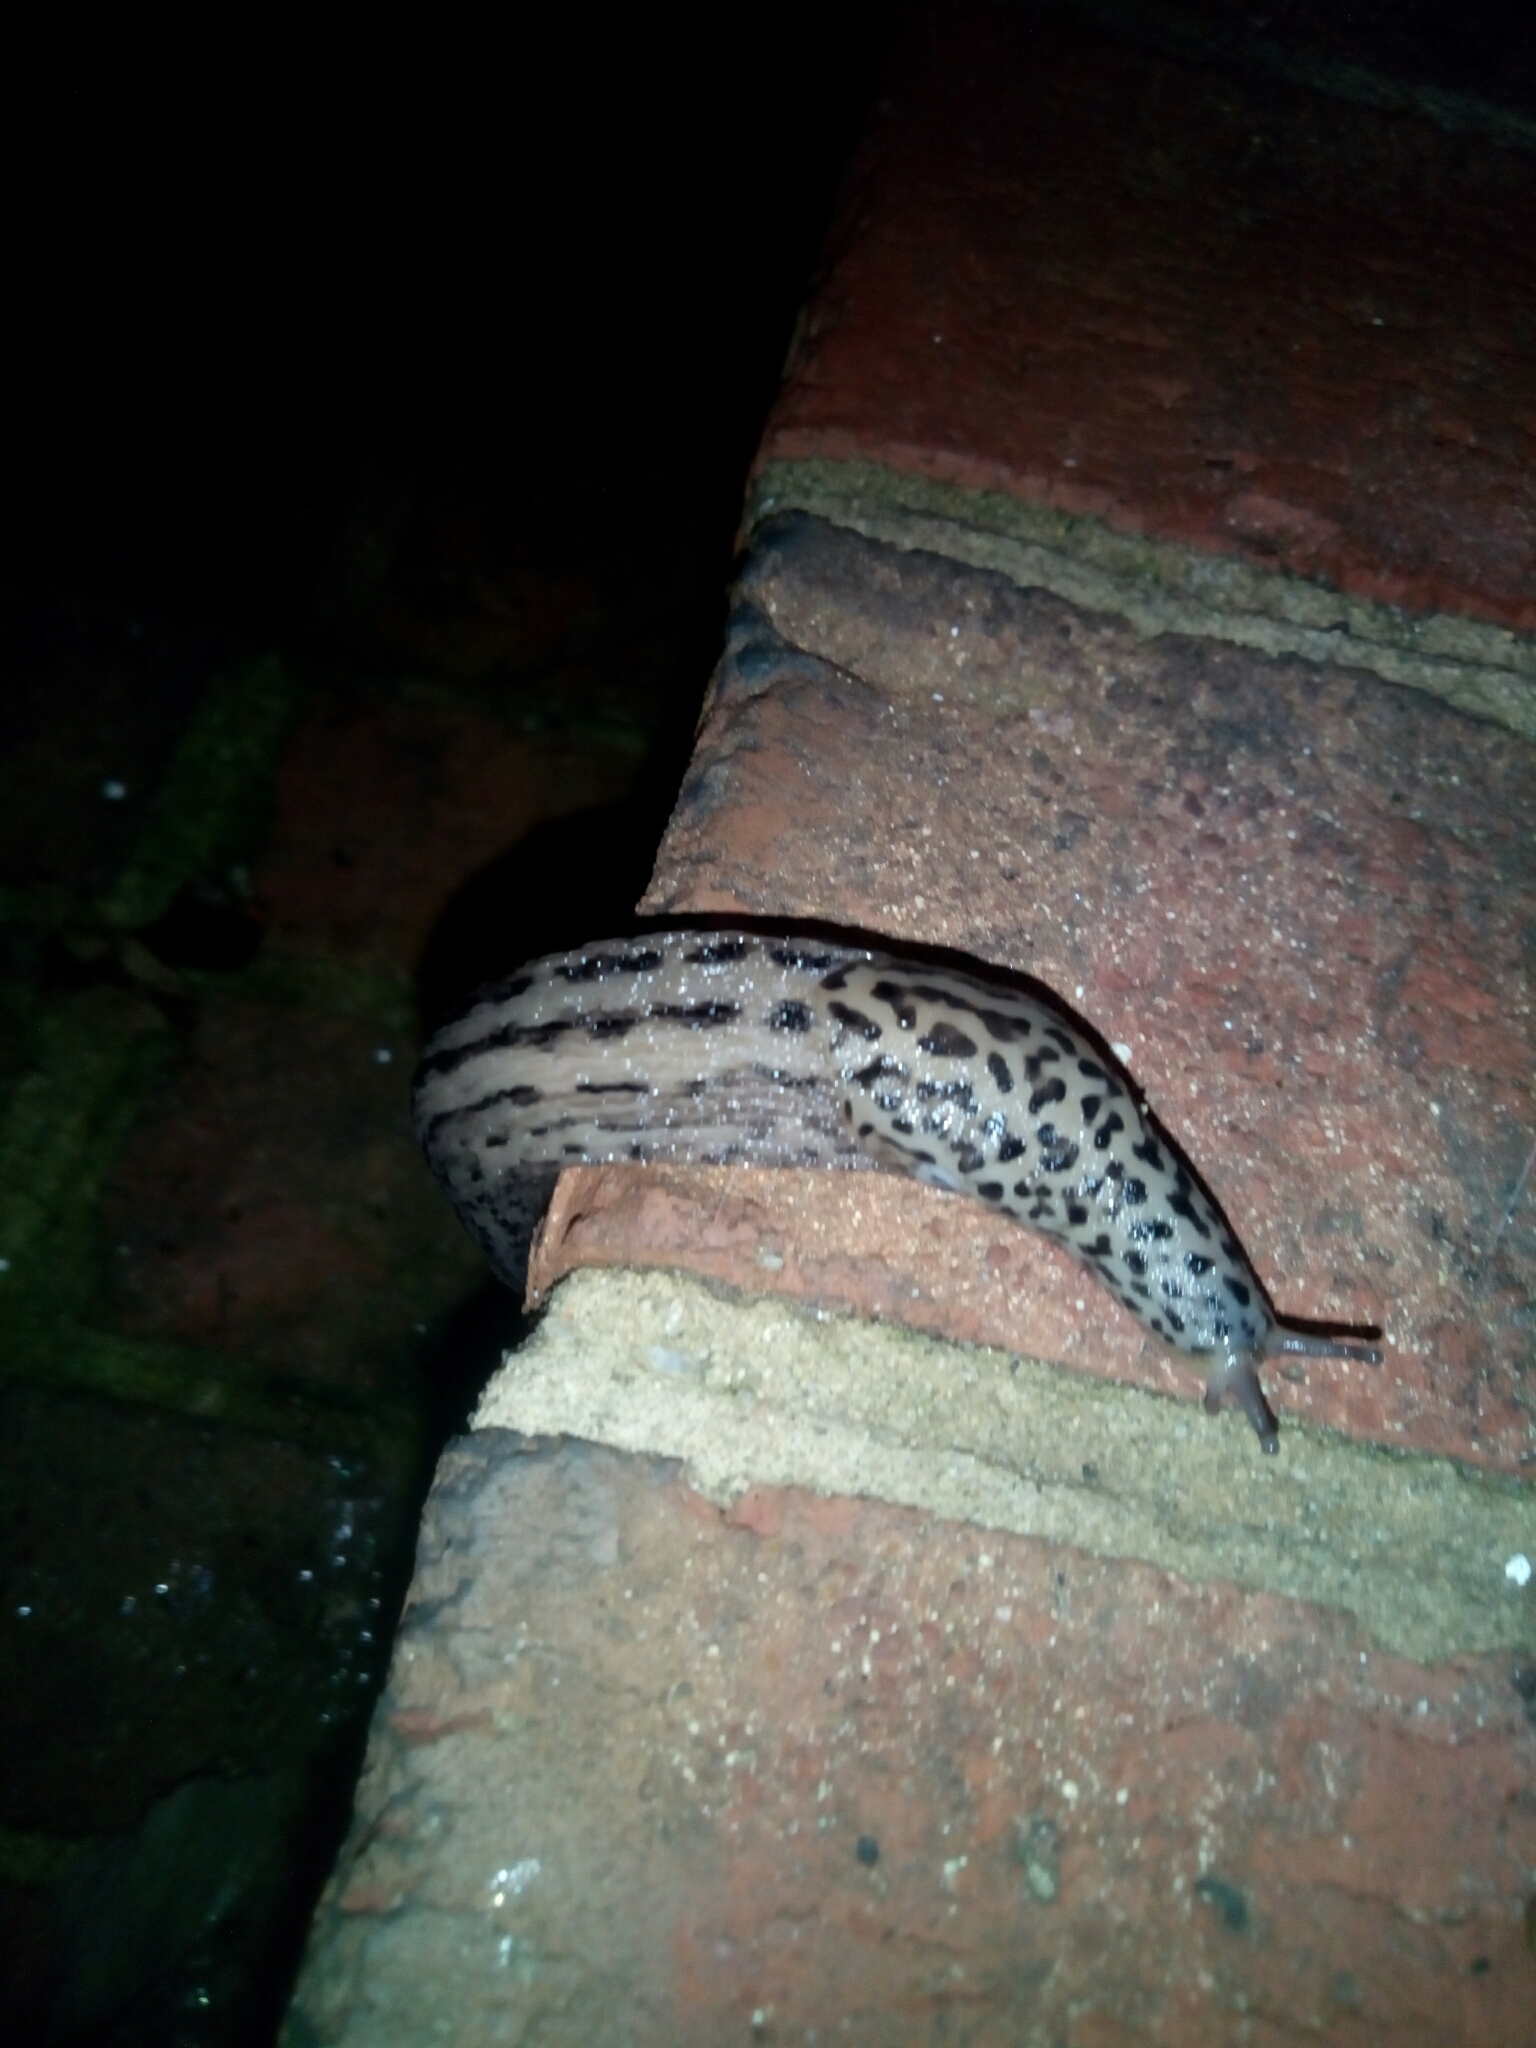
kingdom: Animalia
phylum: Mollusca
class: Gastropoda
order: Stylommatophora
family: Limacidae
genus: Limax
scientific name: Limax maximus
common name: Great grey slug
